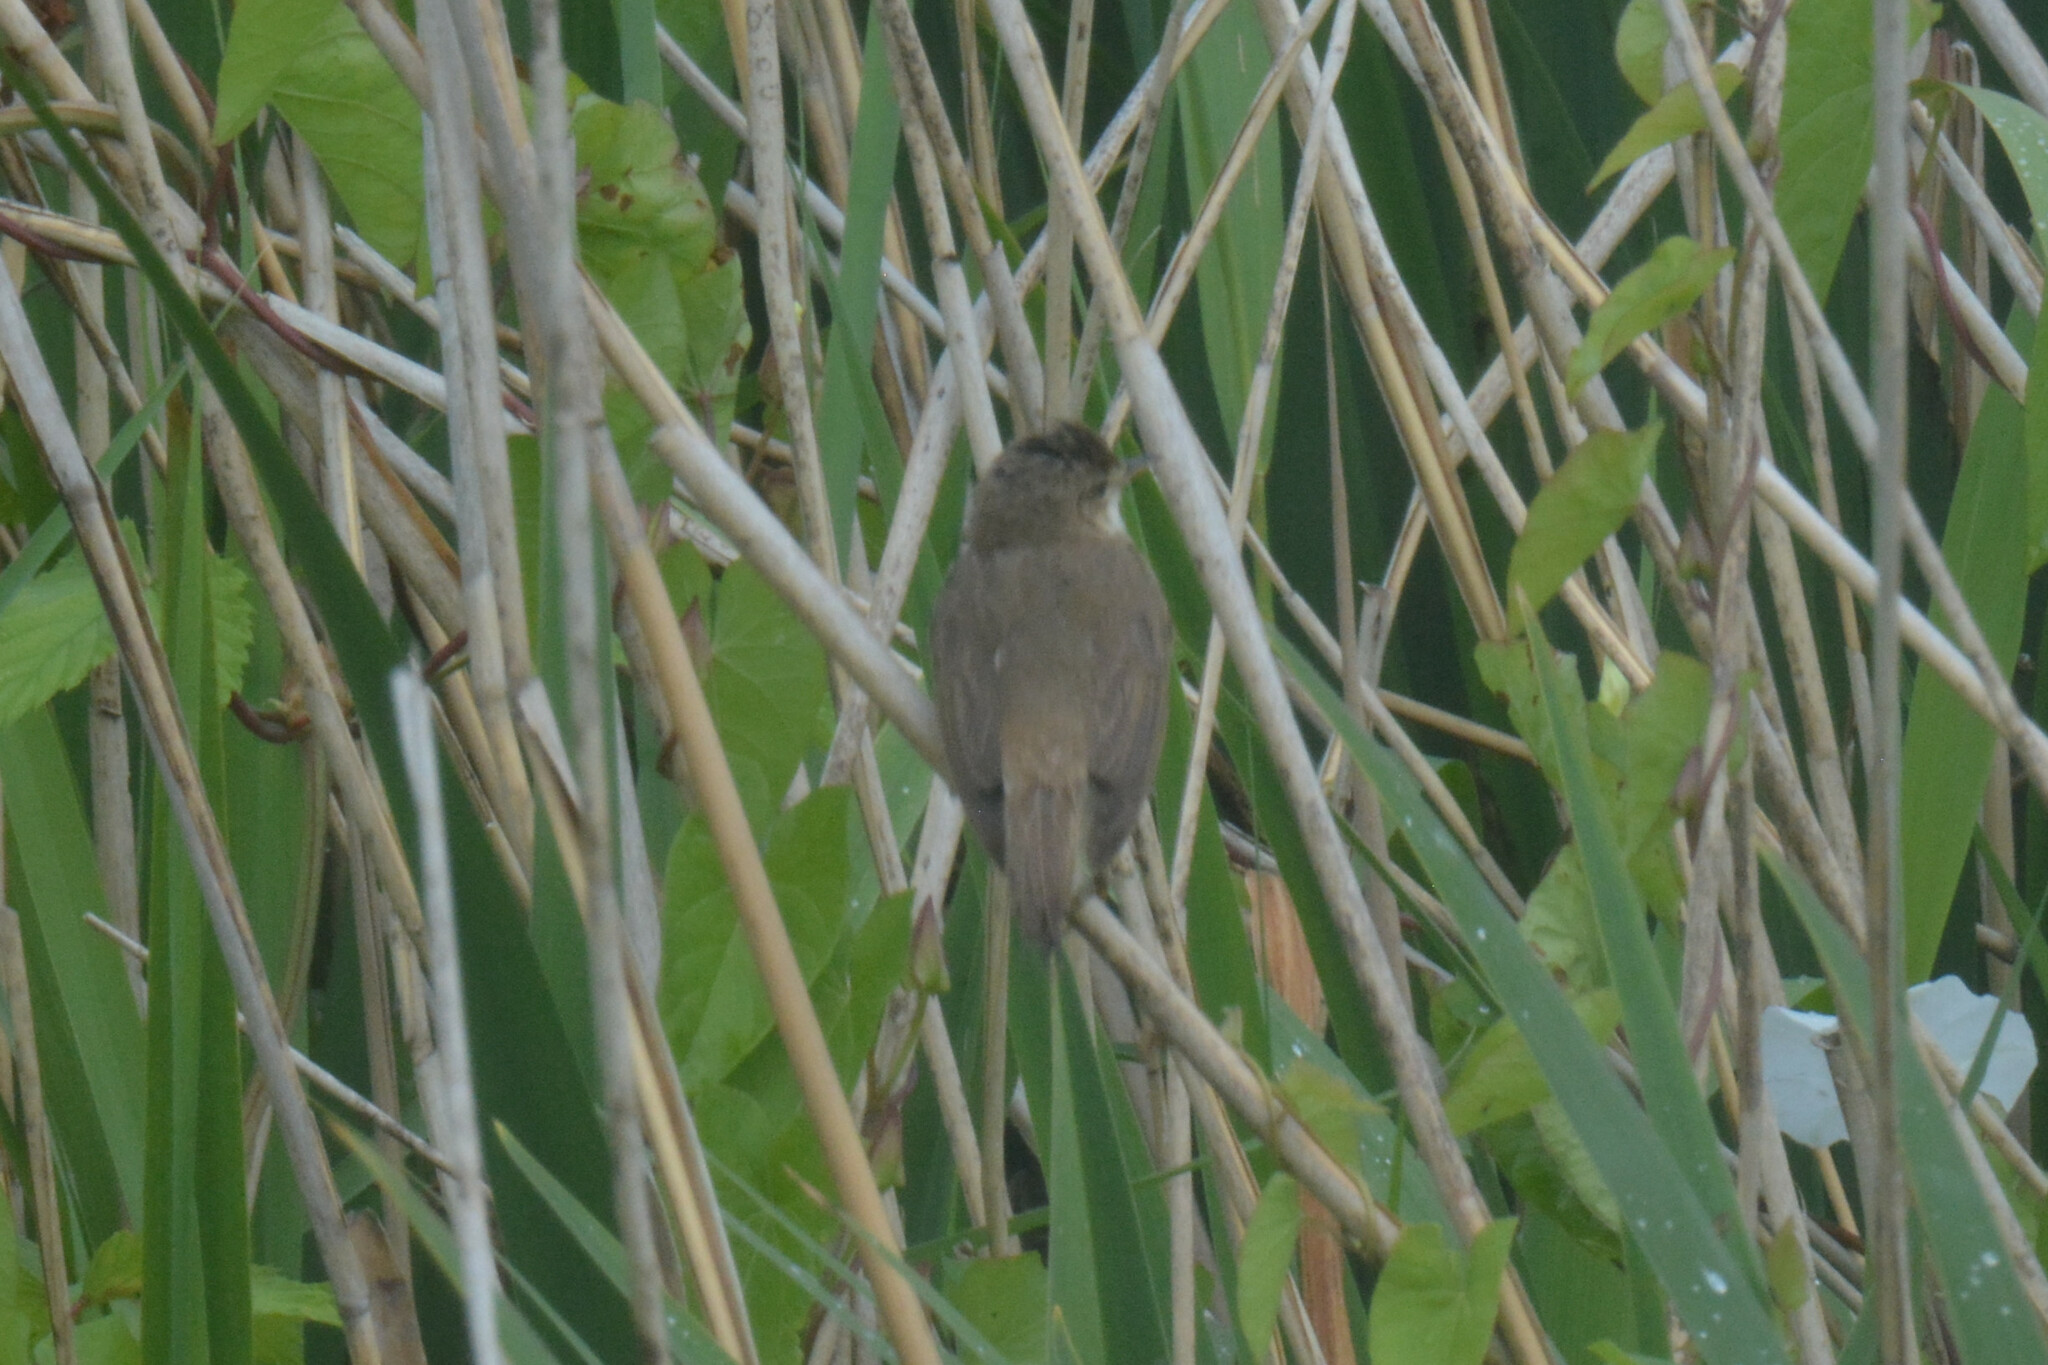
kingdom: Animalia
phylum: Chordata
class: Aves
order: Passeriformes
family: Acrocephalidae
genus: Acrocephalus
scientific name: Acrocephalus scirpaceus
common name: Eurasian reed warbler
